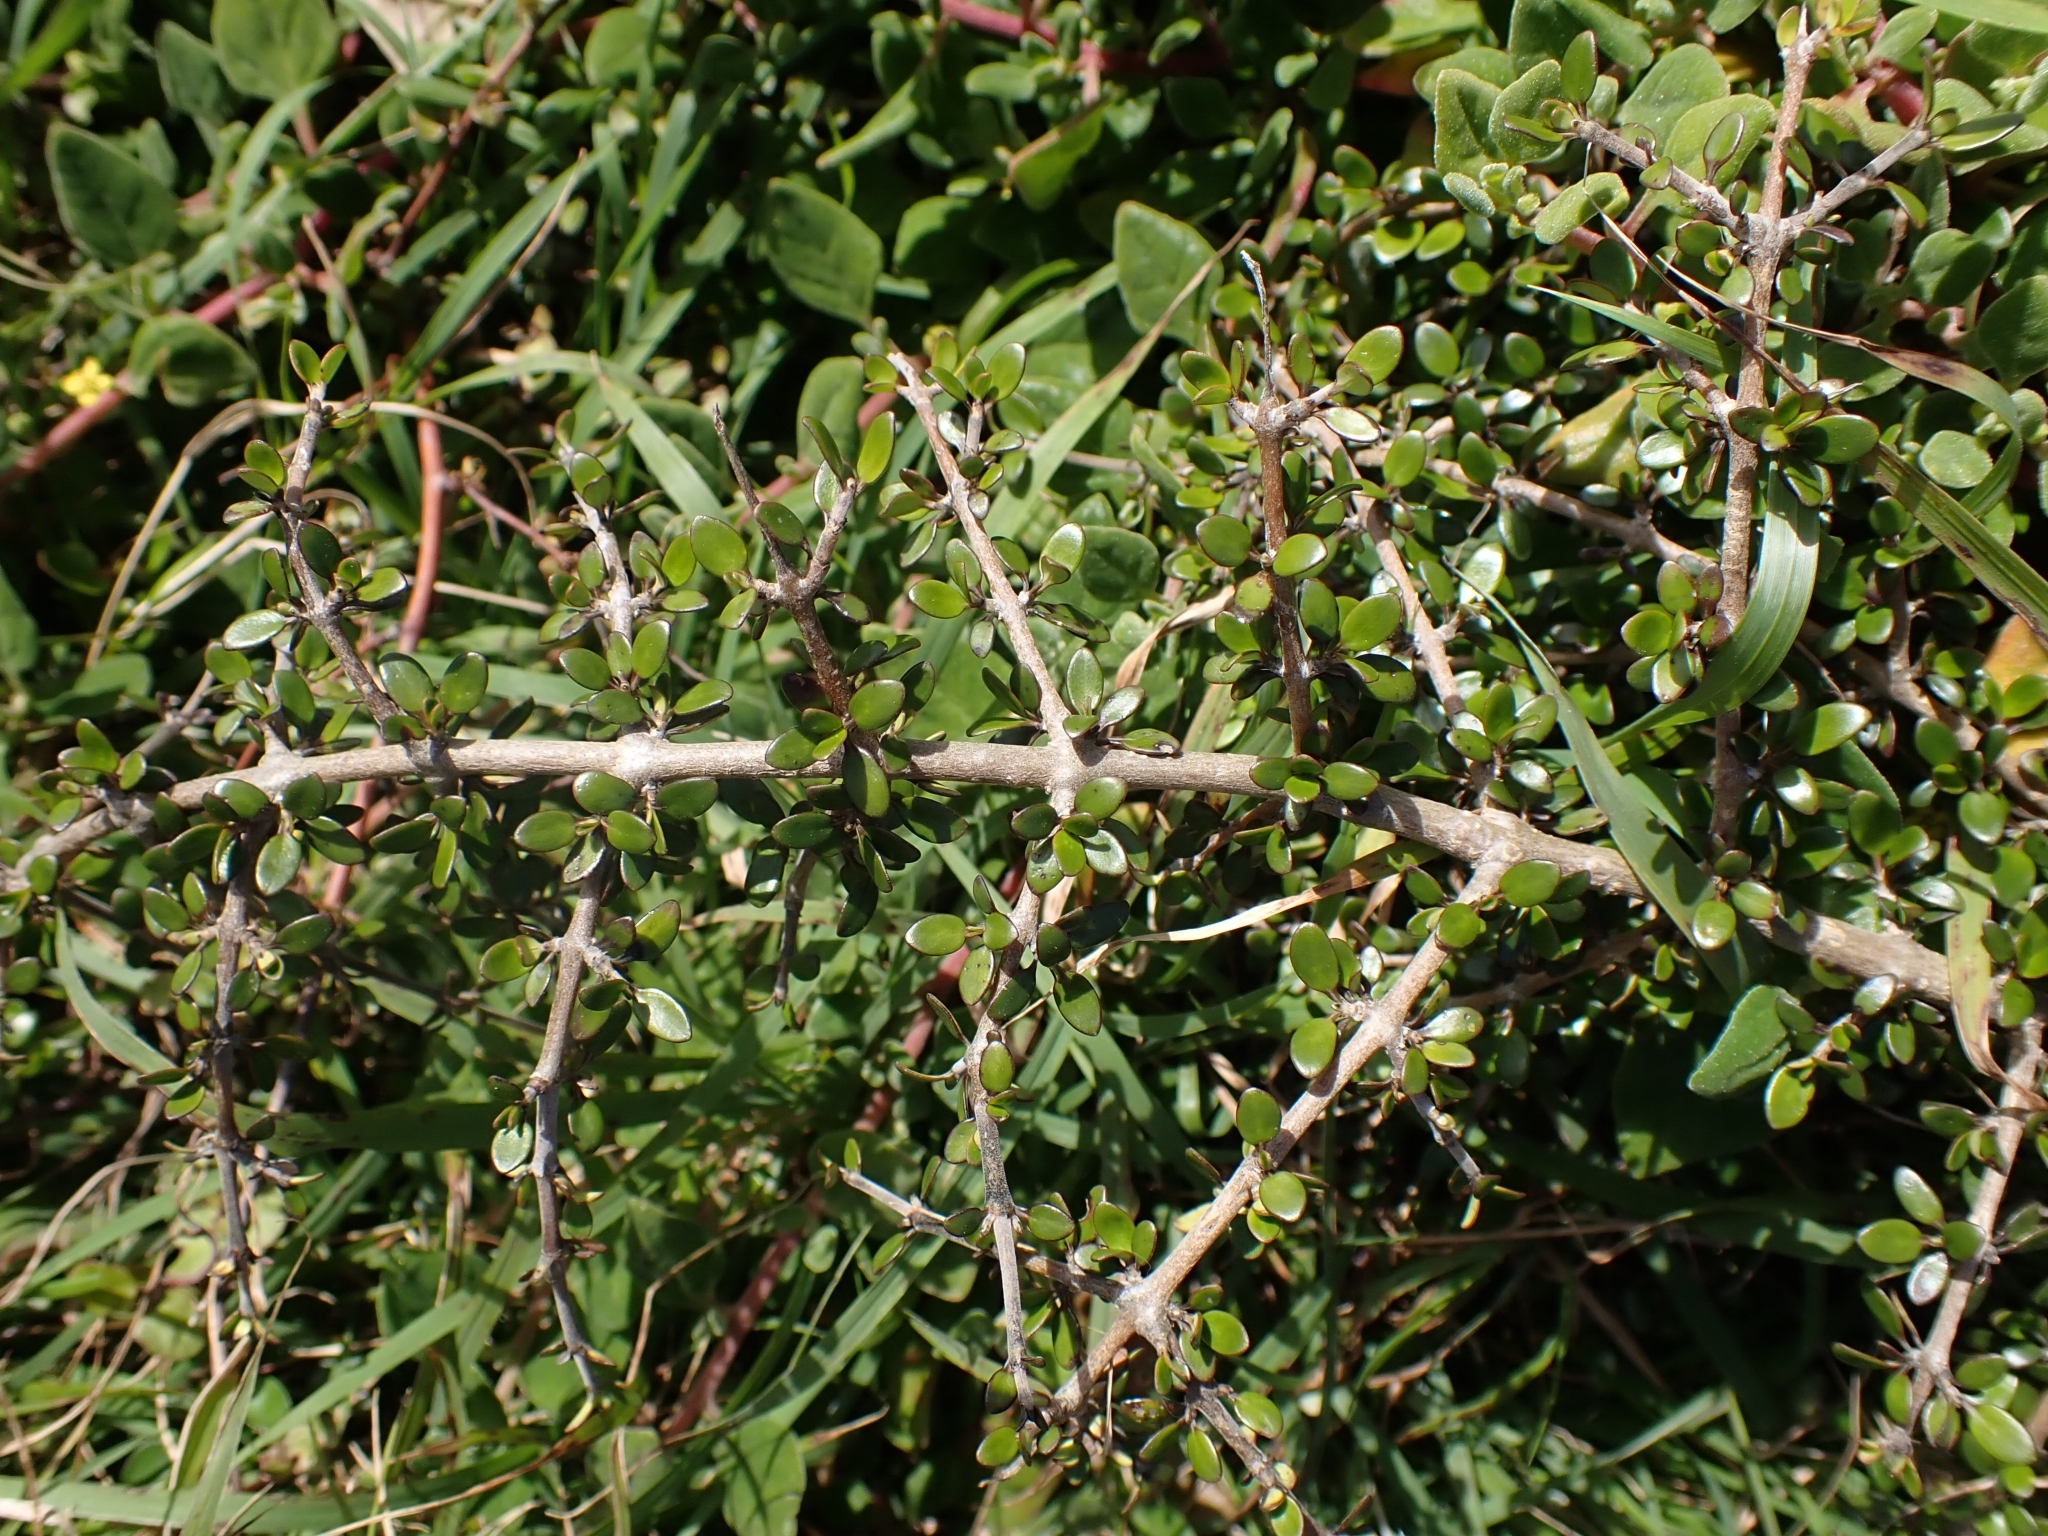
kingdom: Plantae
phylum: Tracheophyta
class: Magnoliopsida
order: Gentianales
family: Rubiaceae
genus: Coprosma
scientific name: Coprosma propinqua
